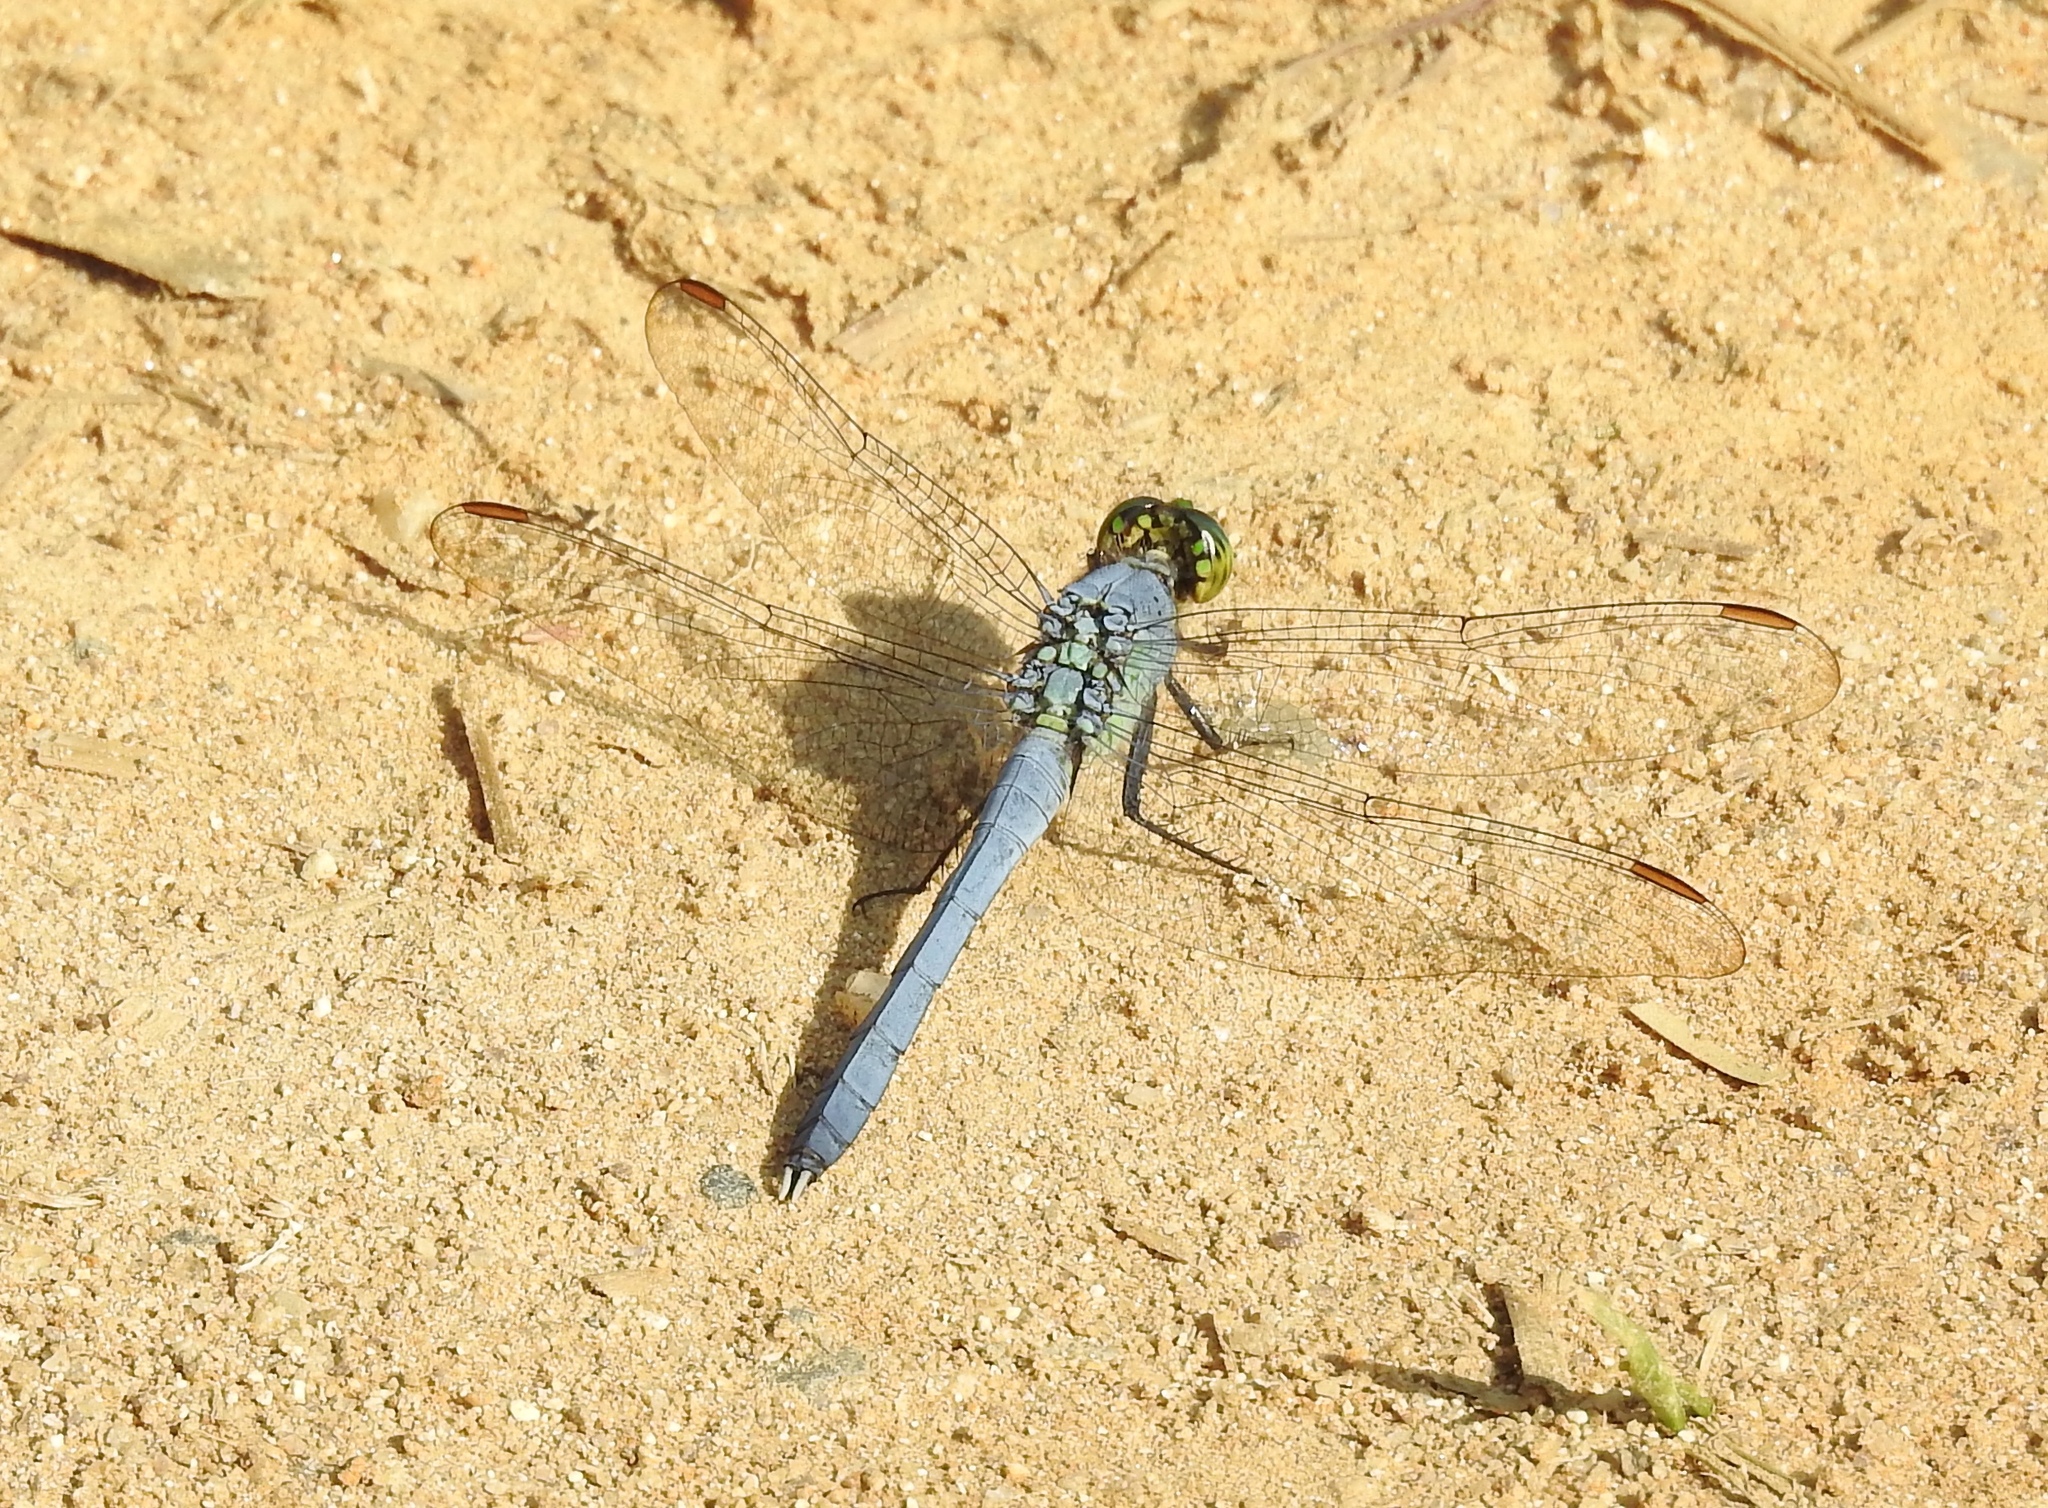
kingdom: Animalia
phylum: Arthropoda
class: Insecta
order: Odonata
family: Libellulidae
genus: Erythemis
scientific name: Erythemis simplicicollis
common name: Eastern pondhawk
